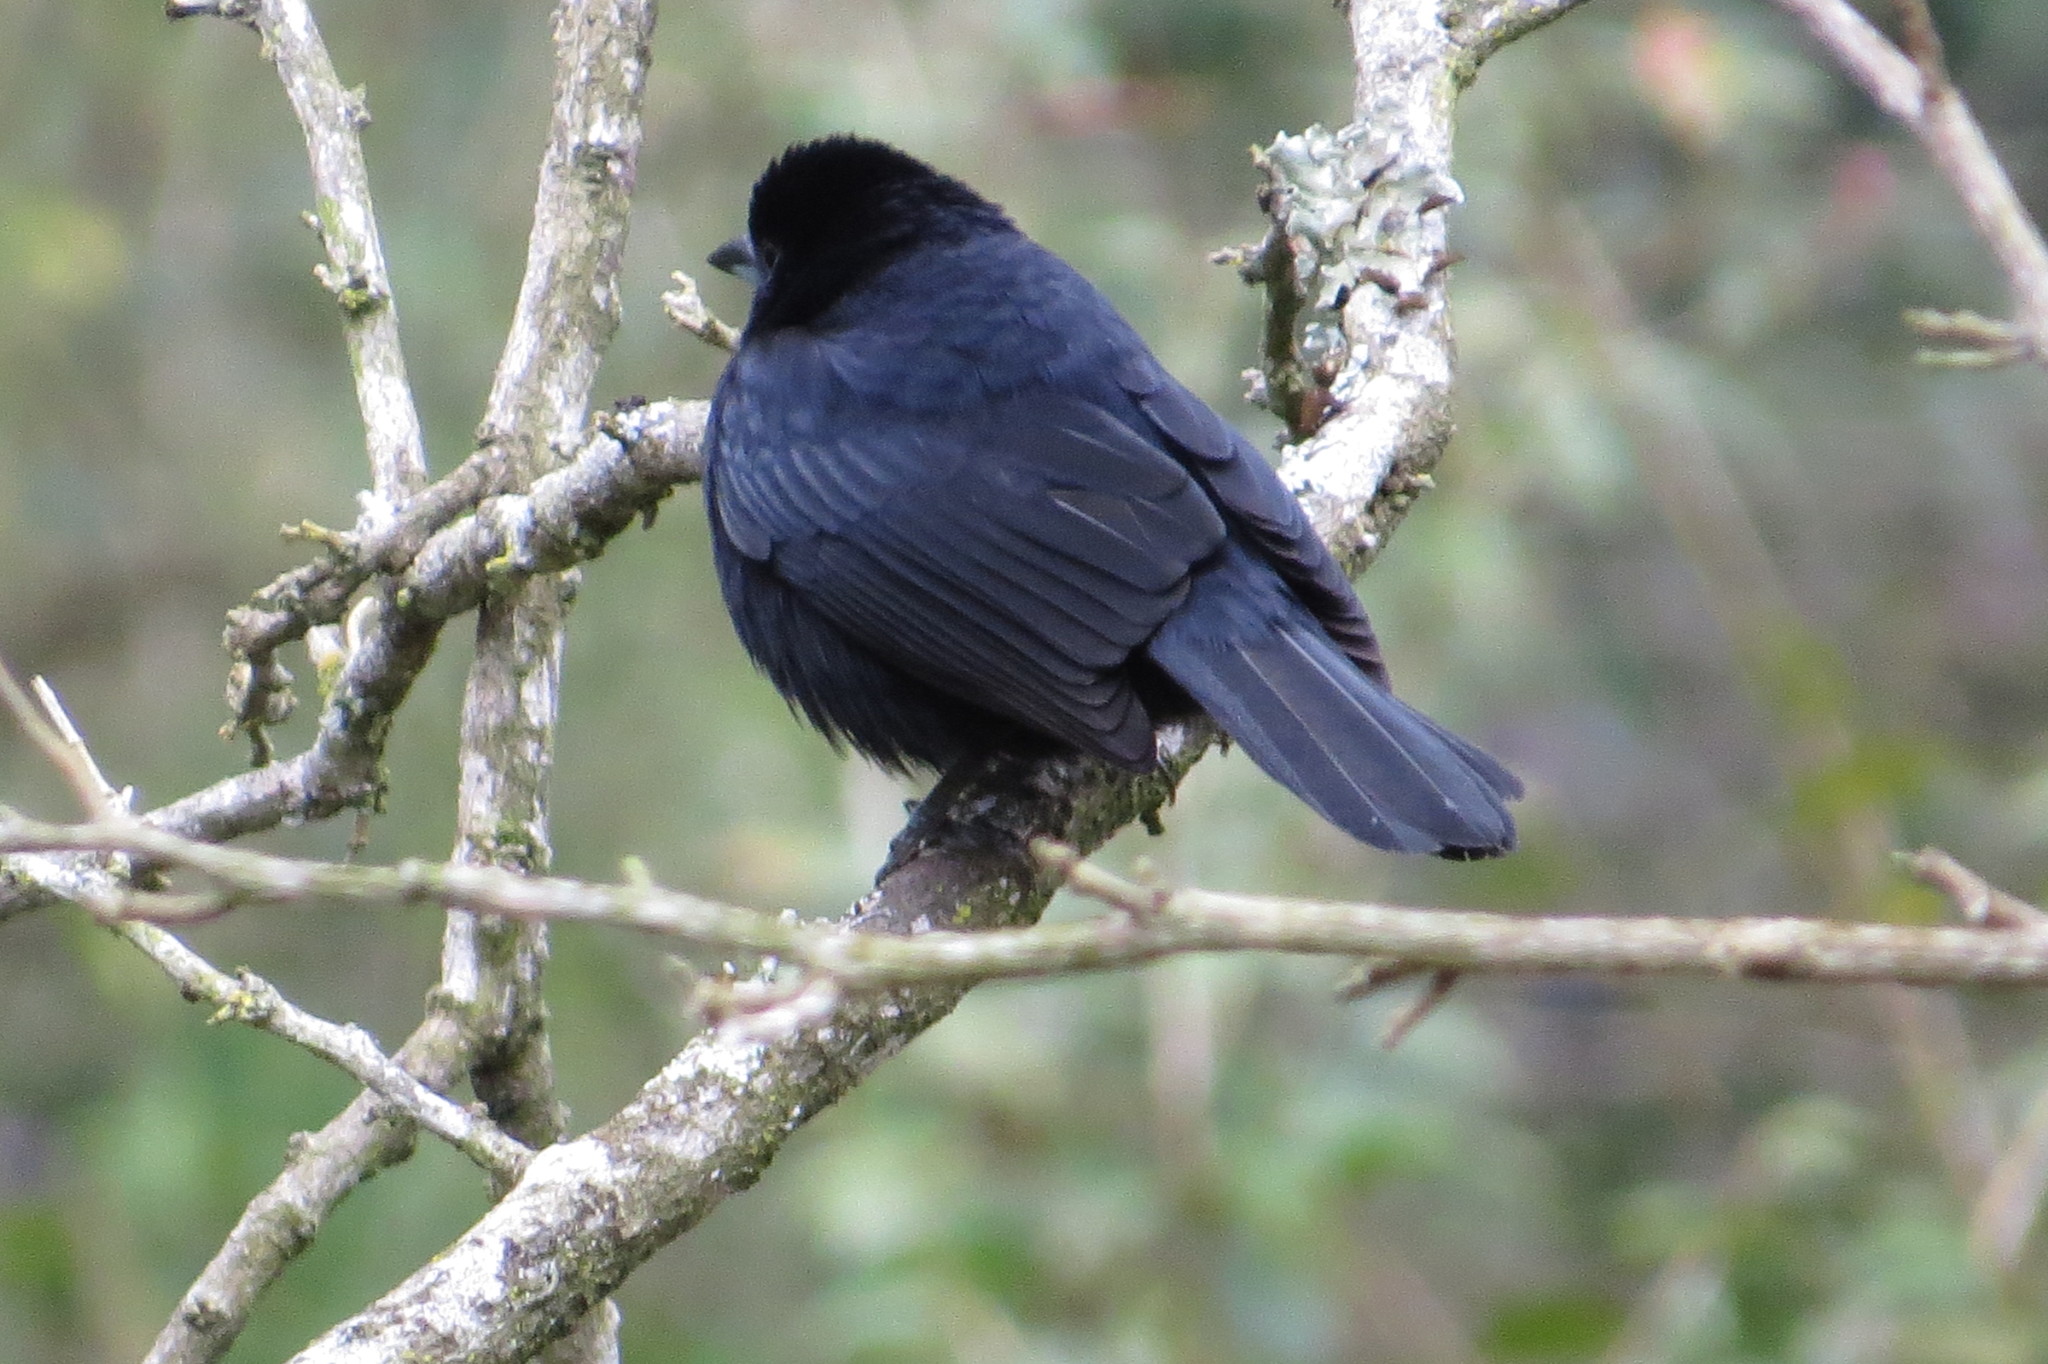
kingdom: Animalia
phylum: Chordata
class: Aves
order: Passeriformes
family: Thraupidae
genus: Tachyphonus
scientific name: Tachyphonus rufus
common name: White-lined tanager
